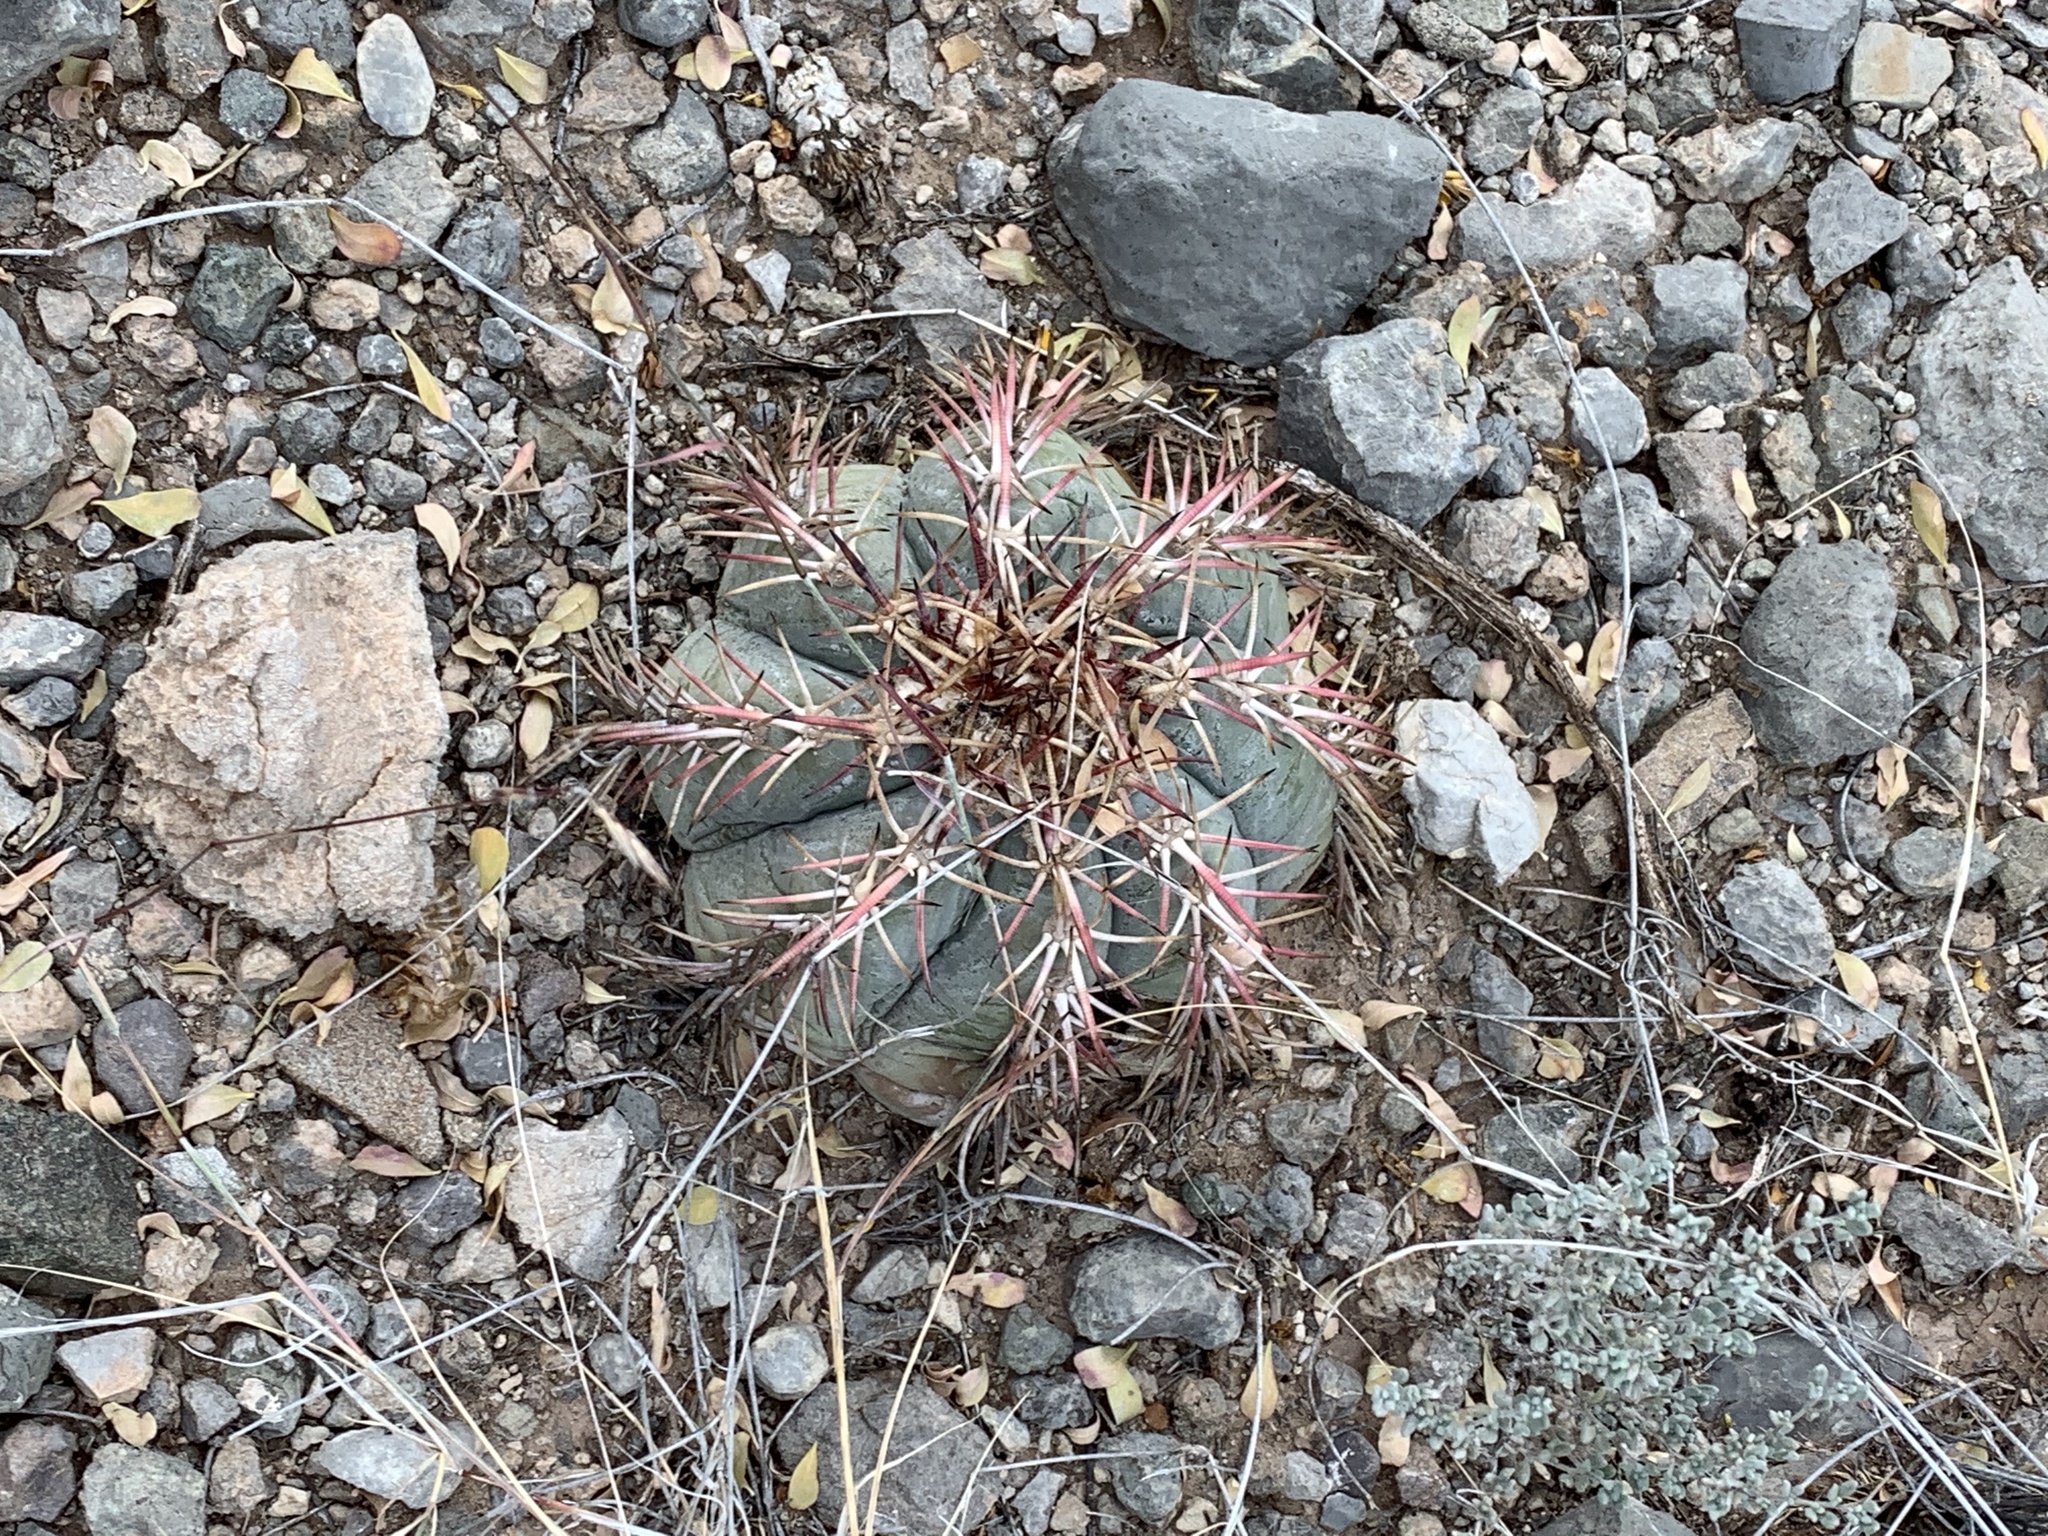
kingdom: Plantae
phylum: Tracheophyta
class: Magnoliopsida
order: Caryophyllales
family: Cactaceae
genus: Echinocactus
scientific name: Echinocactus horizonthalonius
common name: Devilshead
